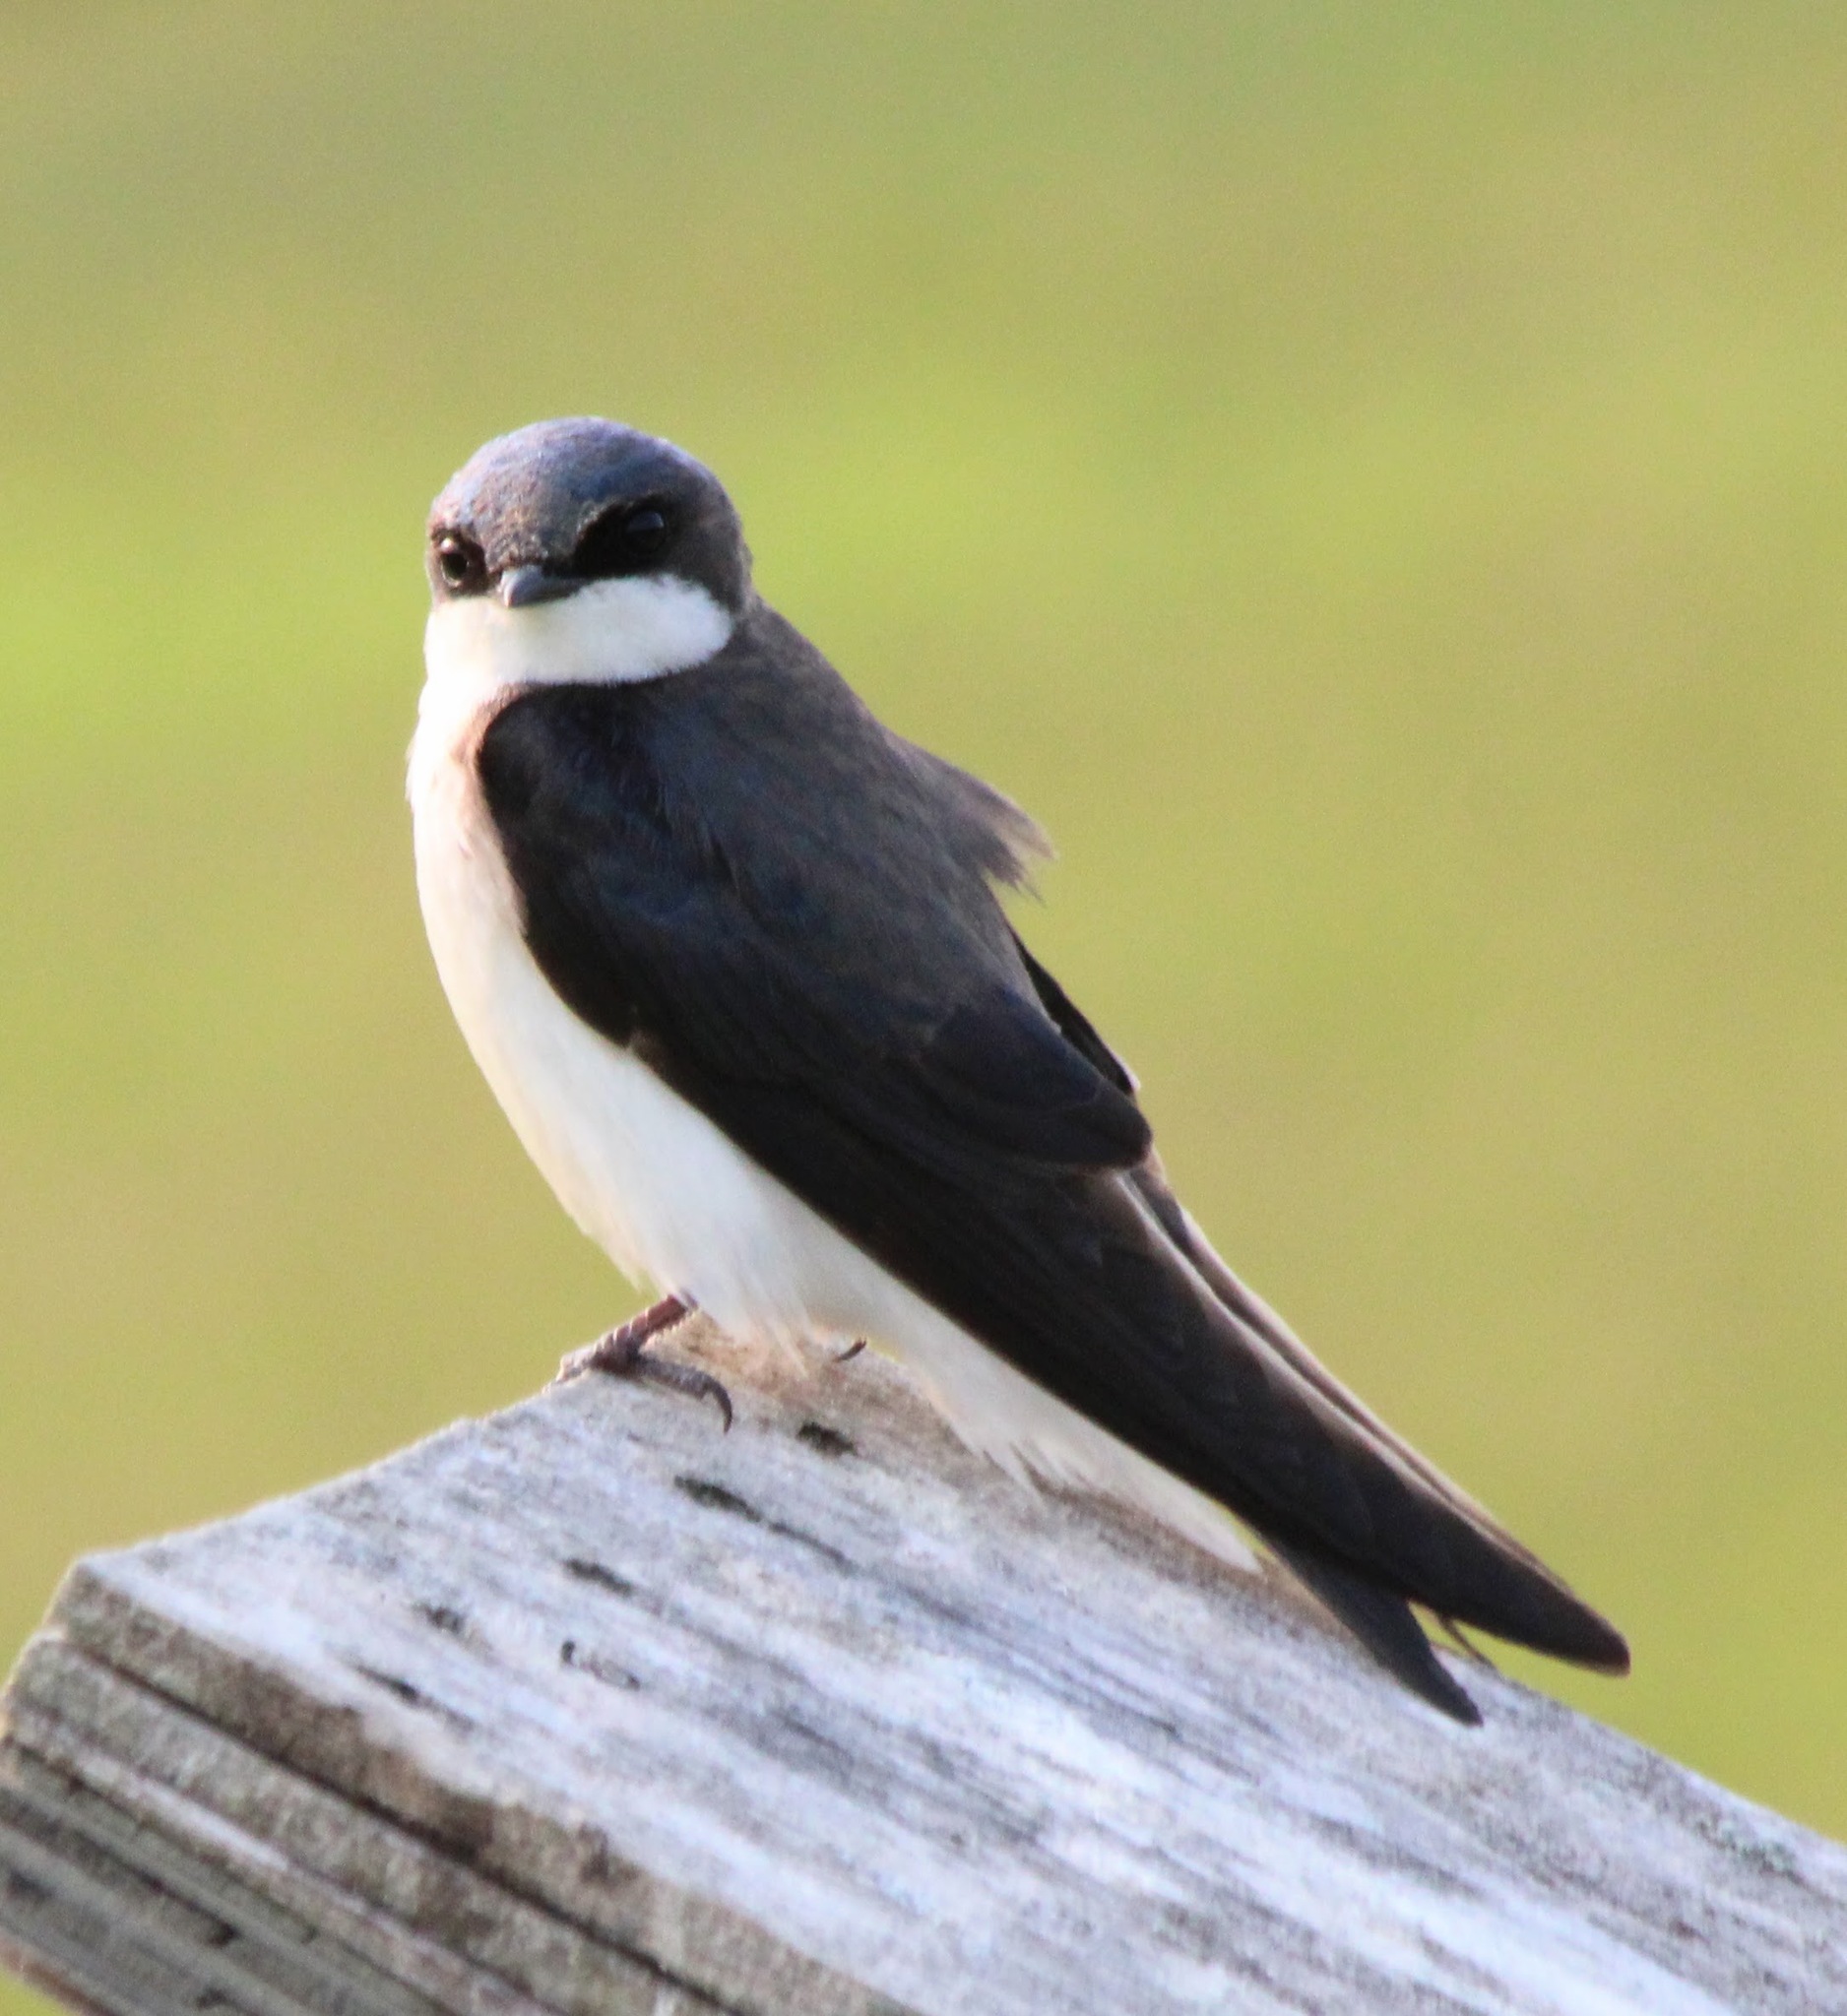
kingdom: Animalia
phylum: Chordata
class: Aves
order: Passeriformes
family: Hirundinidae
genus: Tachycineta
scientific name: Tachycineta bicolor
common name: Tree swallow
